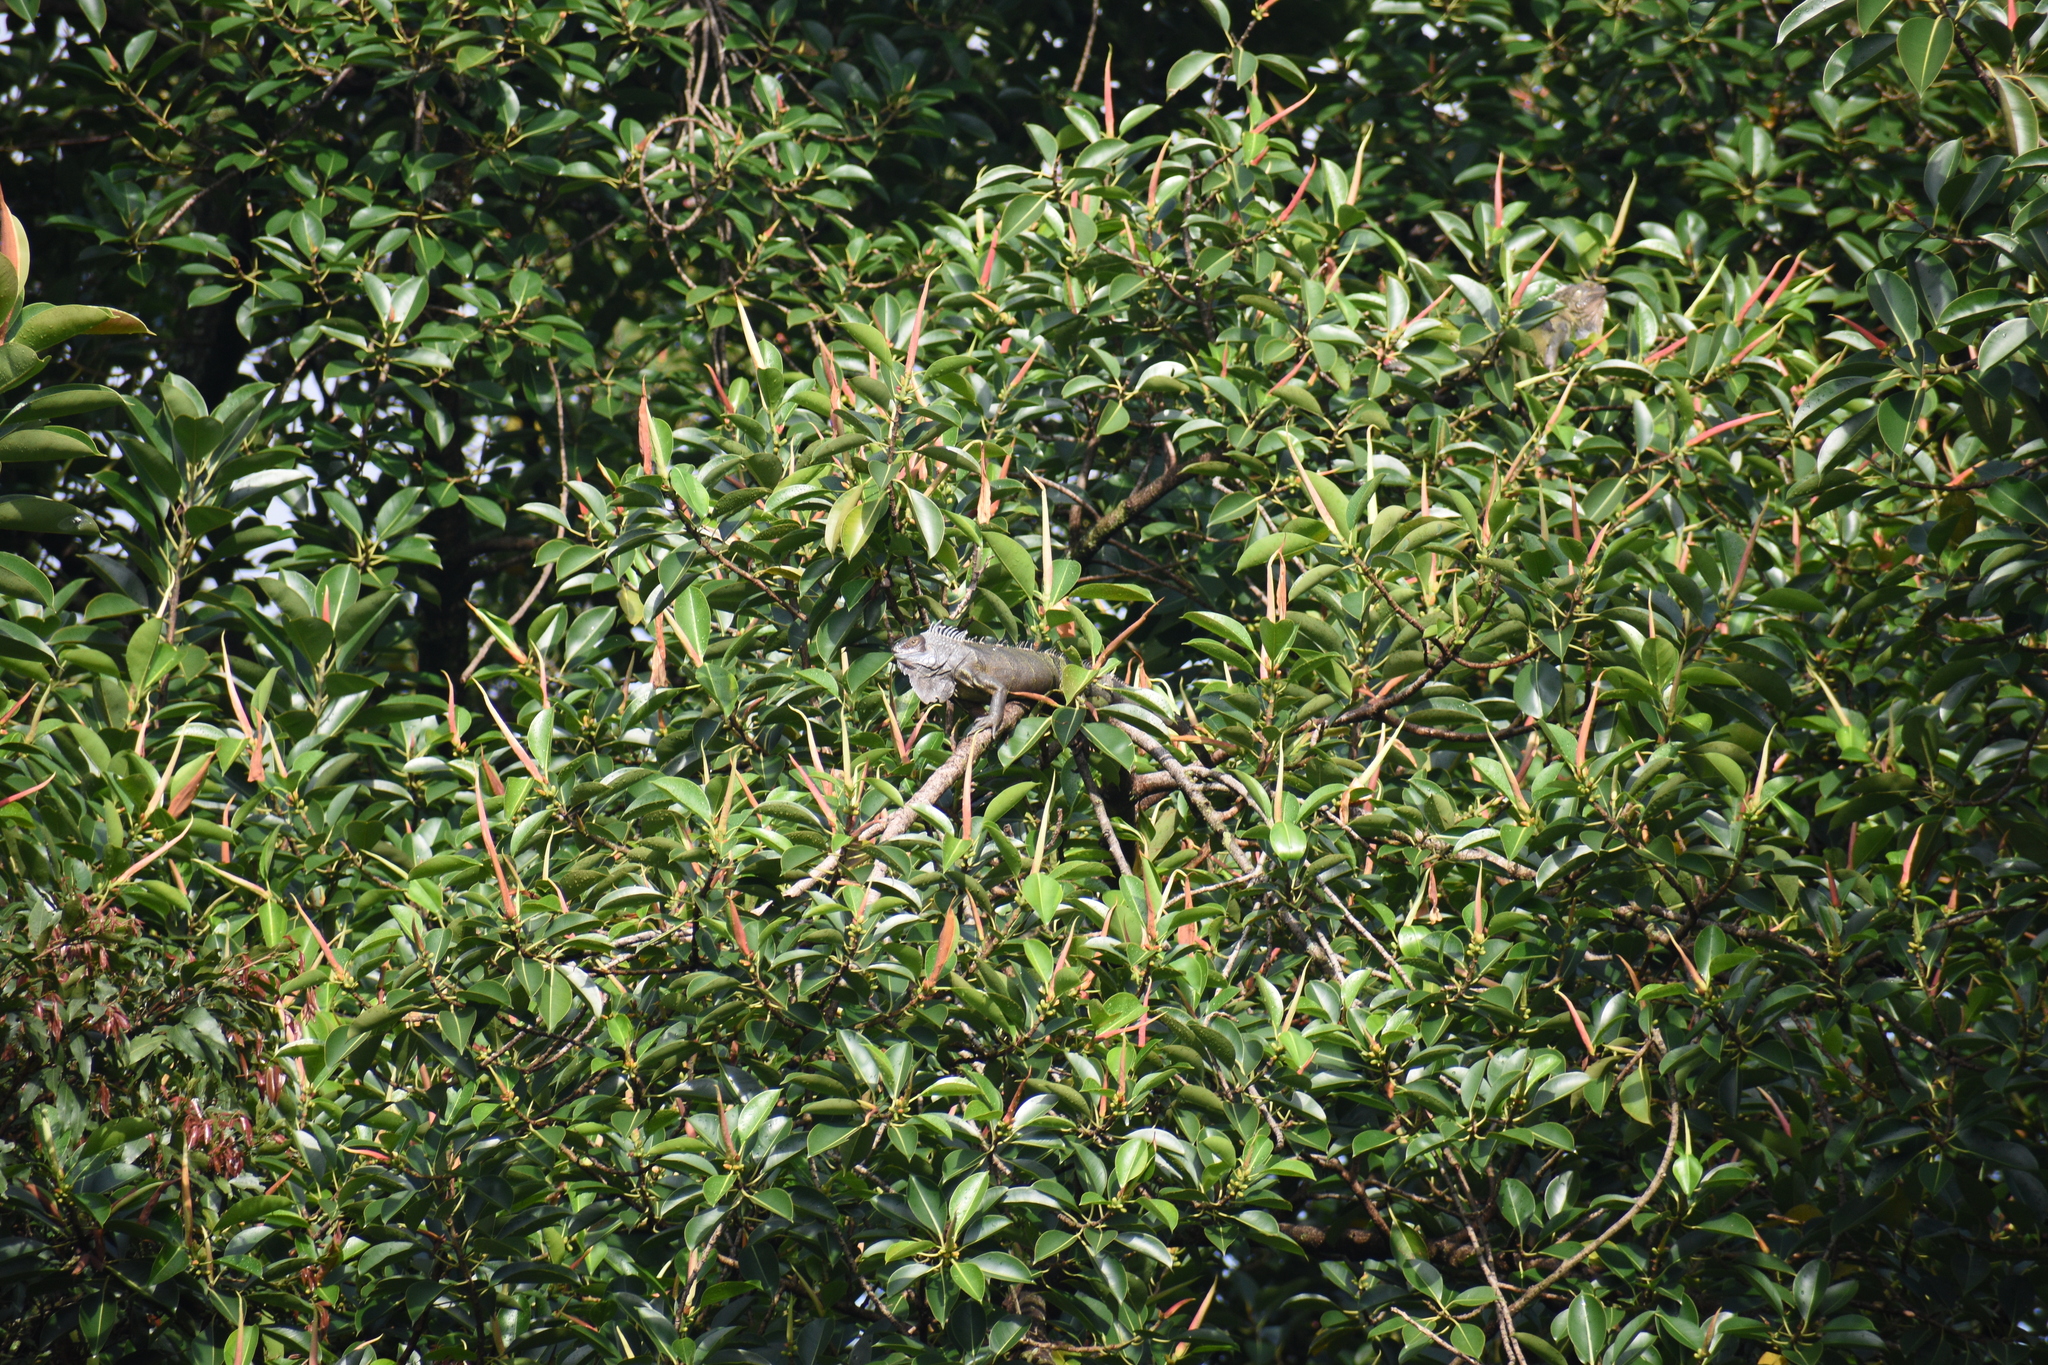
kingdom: Animalia
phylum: Chordata
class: Squamata
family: Iguanidae
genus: Iguana
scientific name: Iguana iguana
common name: Green iguana
